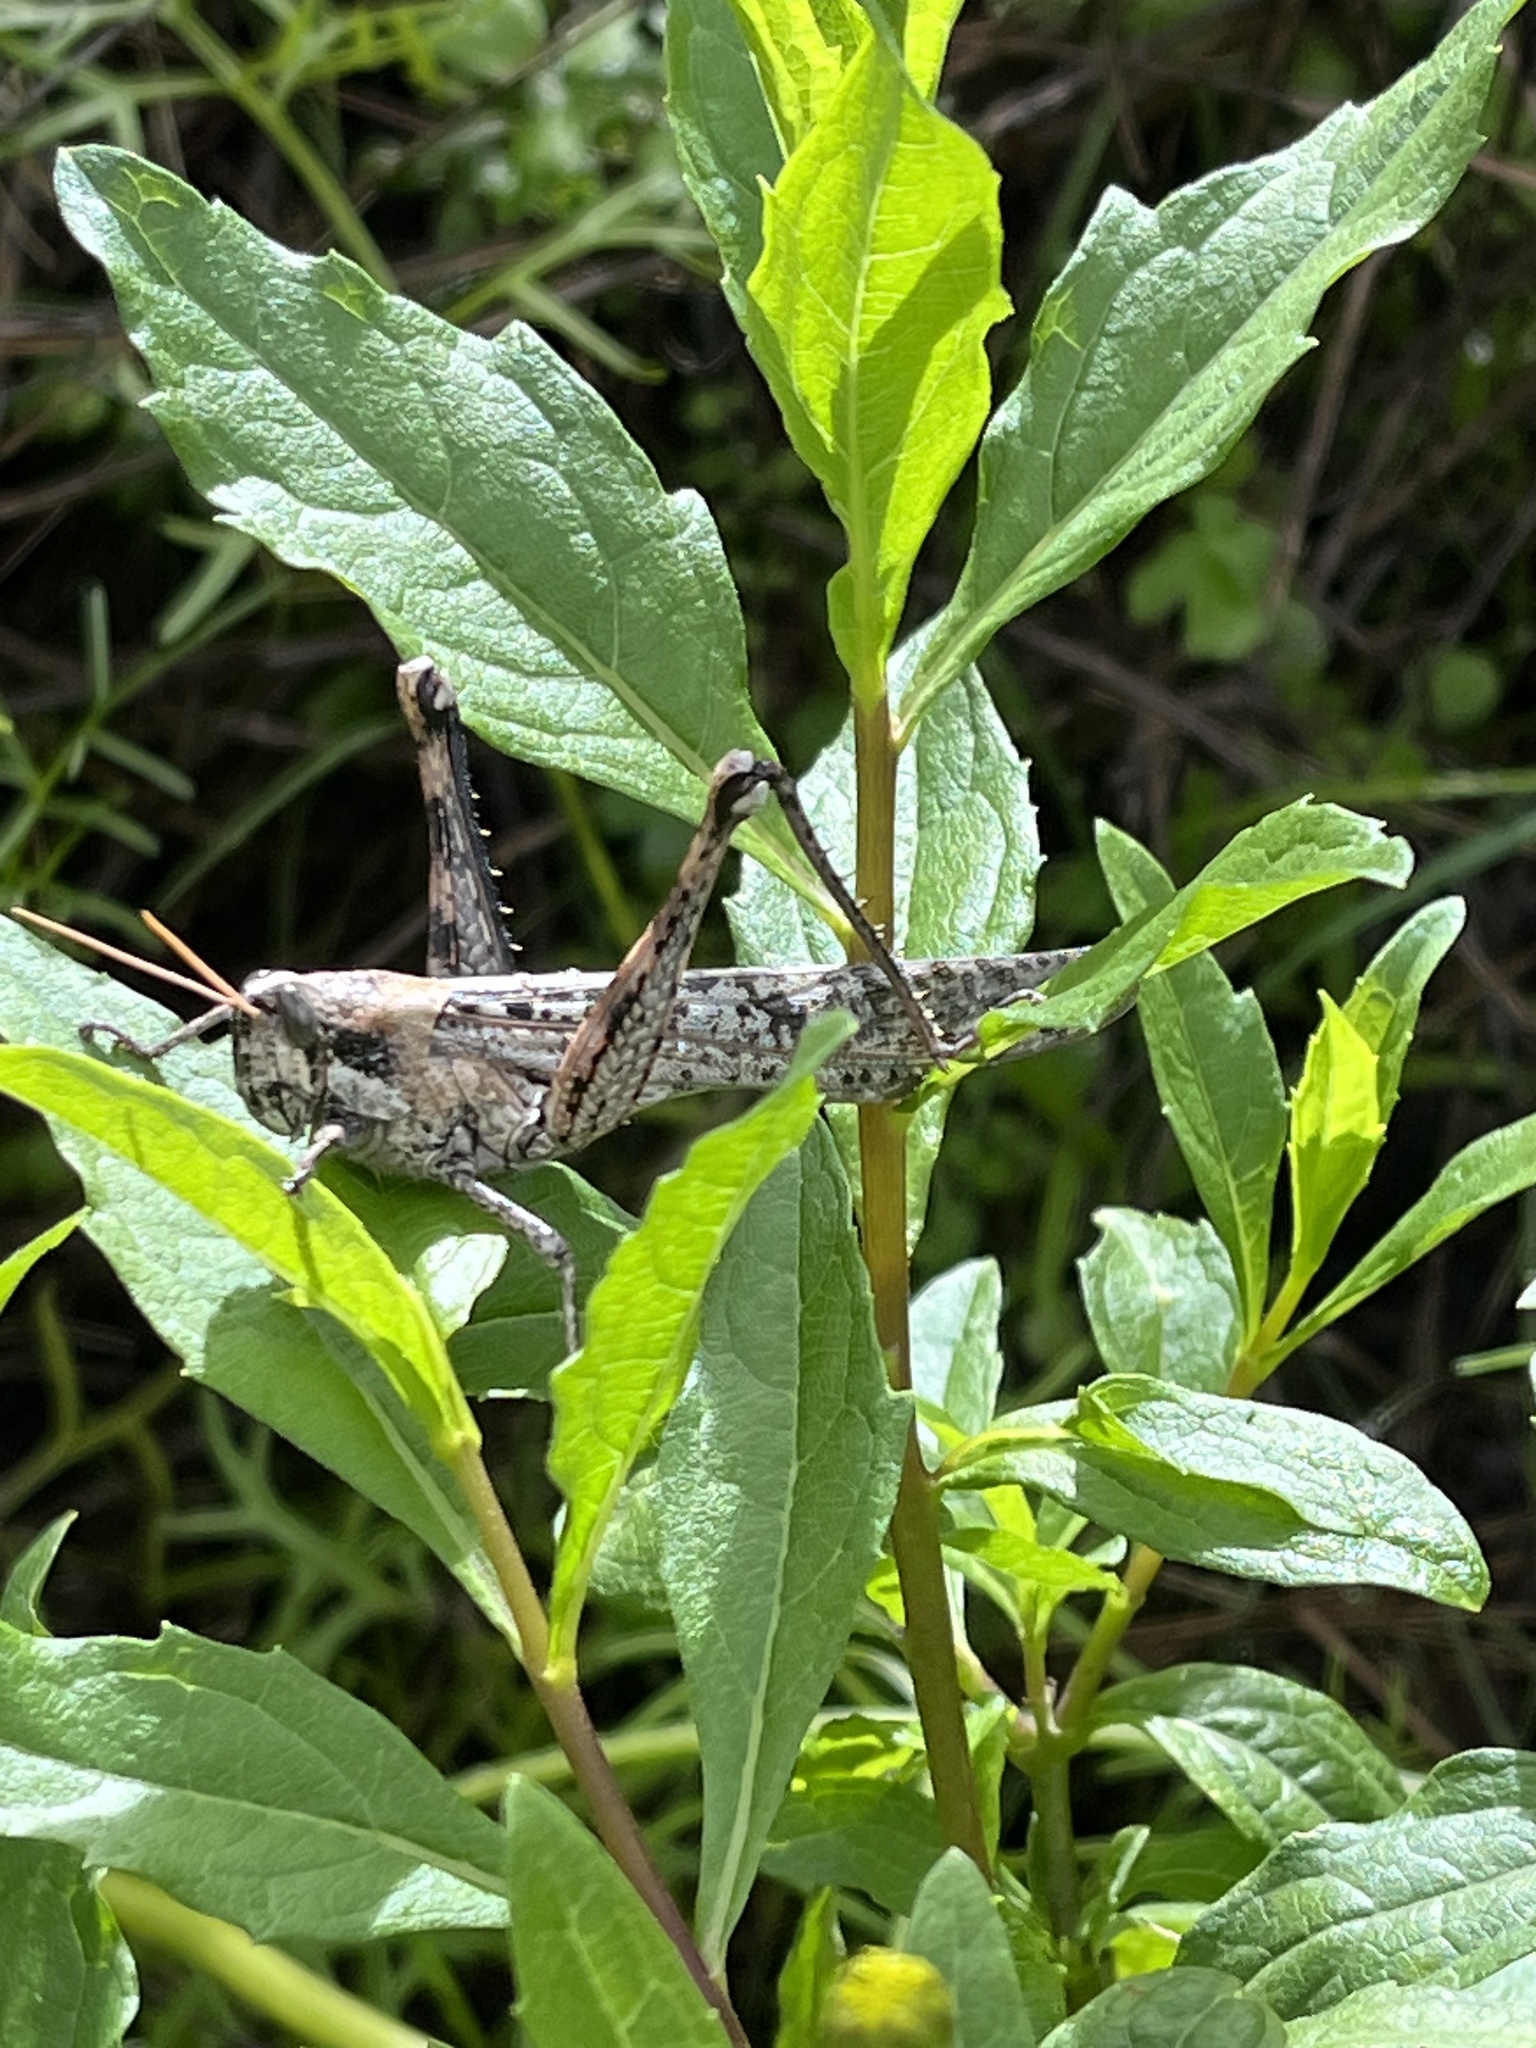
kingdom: Animalia
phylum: Arthropoda
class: Insecta
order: Orthoptera
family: Acrididae
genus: Schistocerca
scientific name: Schistocerca nitens
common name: Vagrant grasshopper
